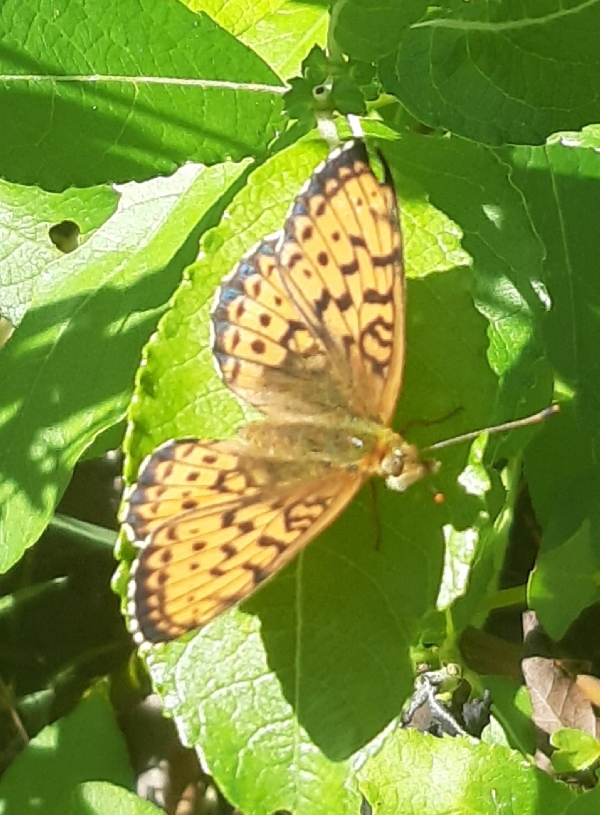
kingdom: Animalia
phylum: Arthropoda
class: Insecta
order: Lepidoptera
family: Nymphalidae
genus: Brenthis
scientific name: Brenthis ino
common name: Lesser marbled fritillary
